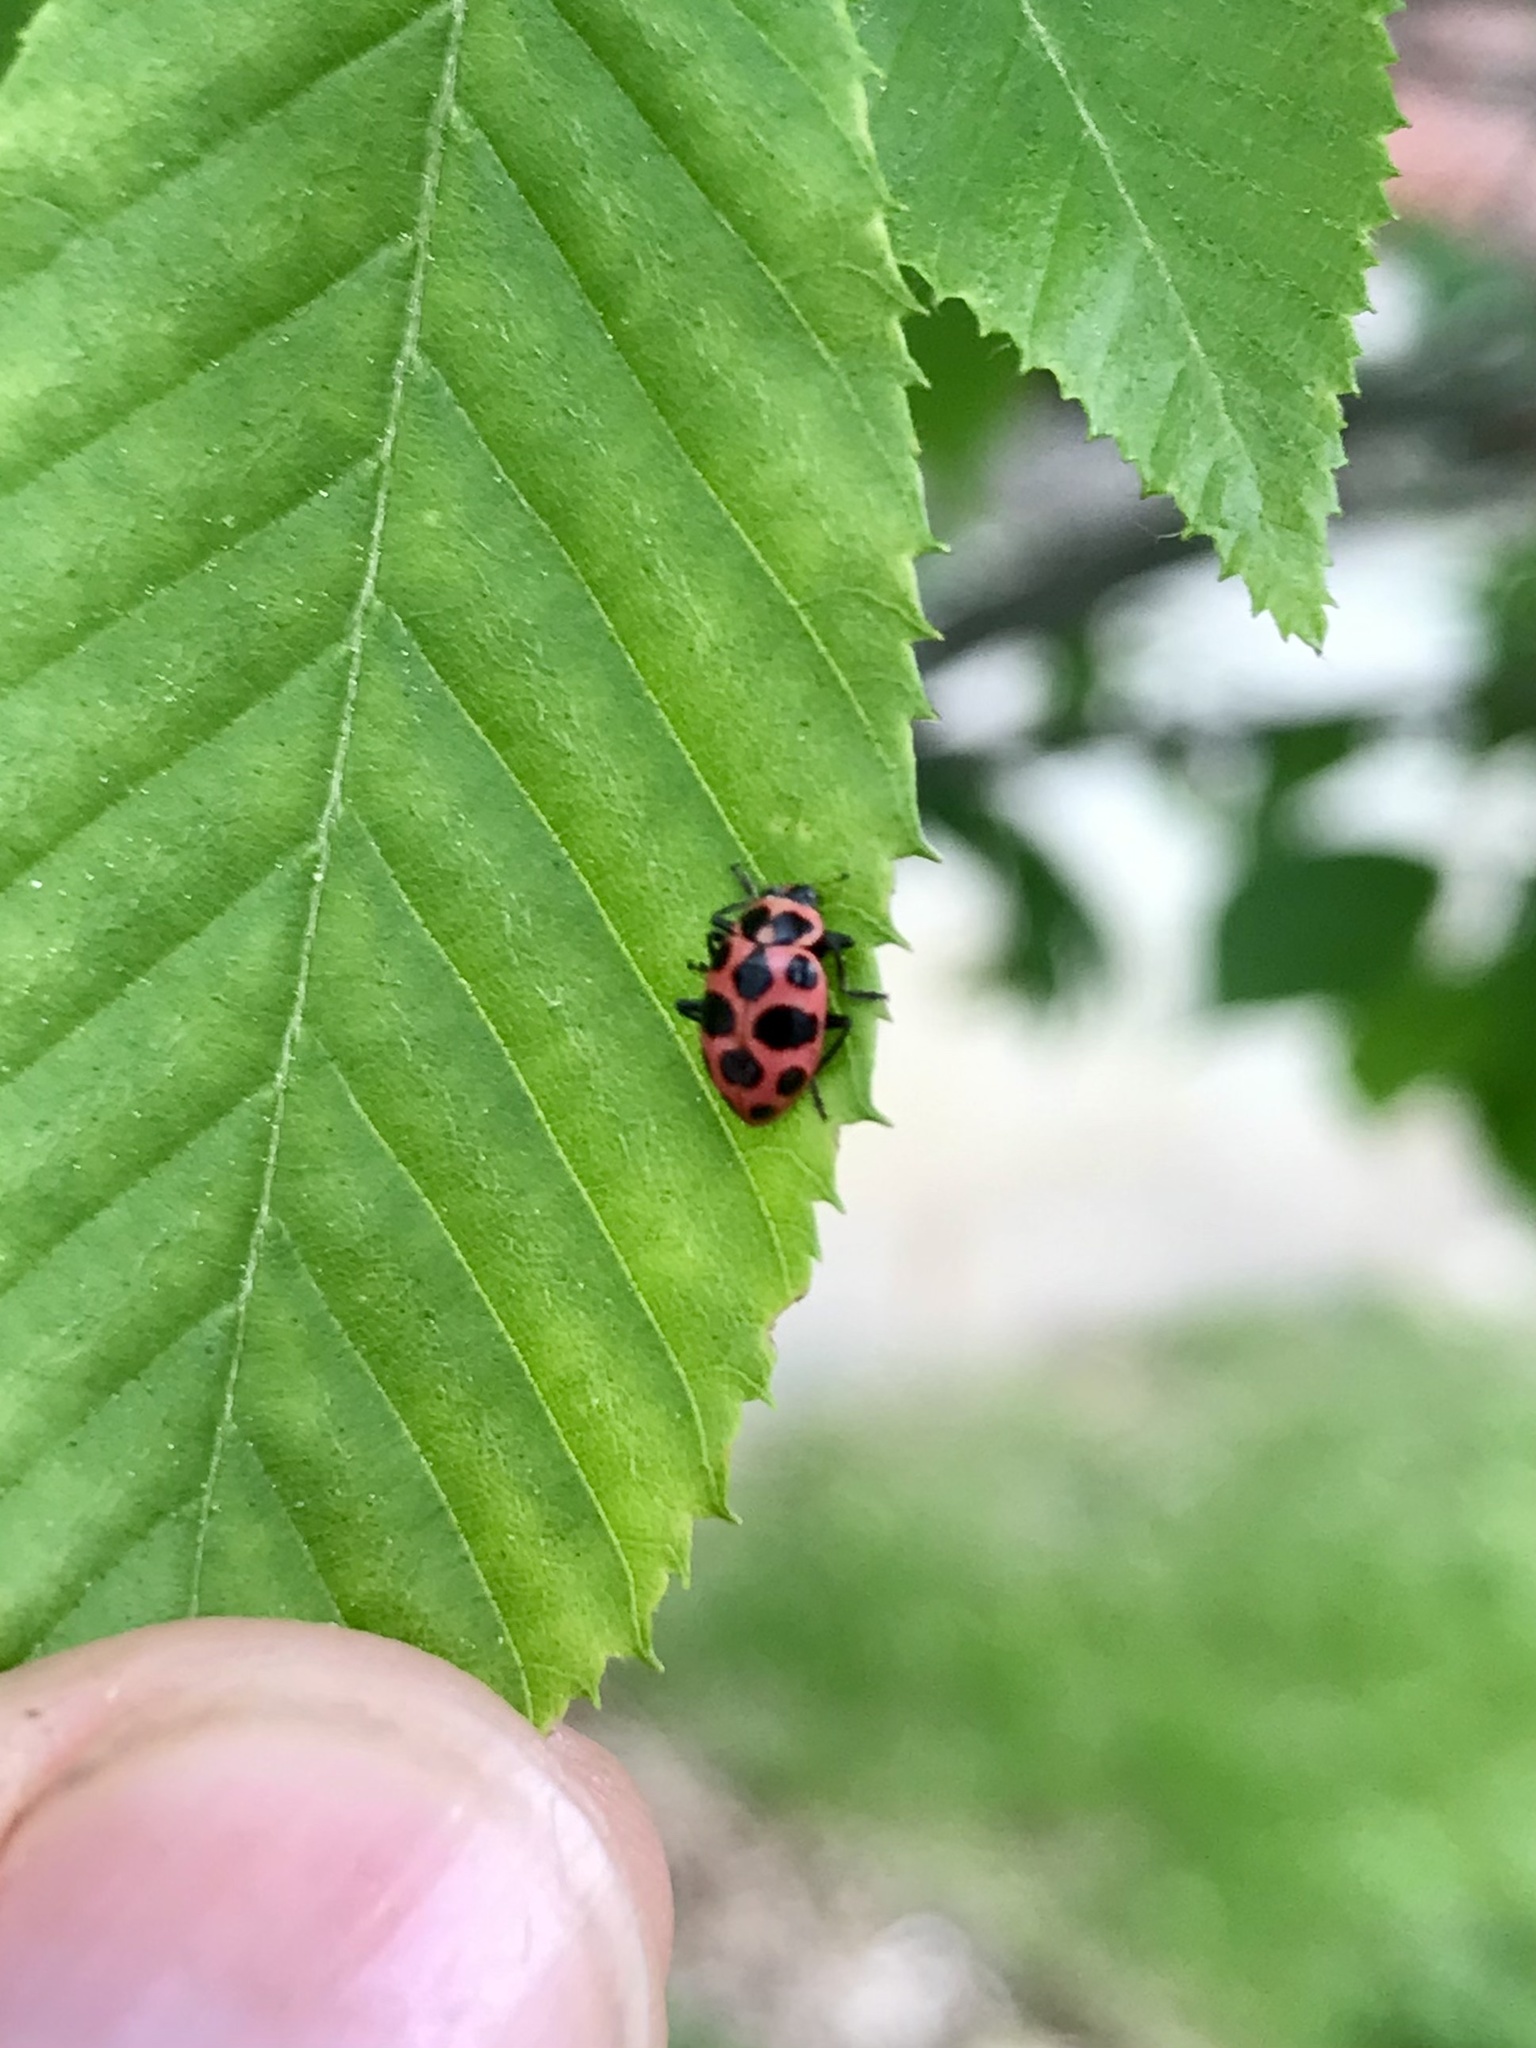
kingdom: Animalia
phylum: Arthropoda
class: Insecta
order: Coleoptera
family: Coccinellidae
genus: Coleomegilla
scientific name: Coleomegilla maculata
